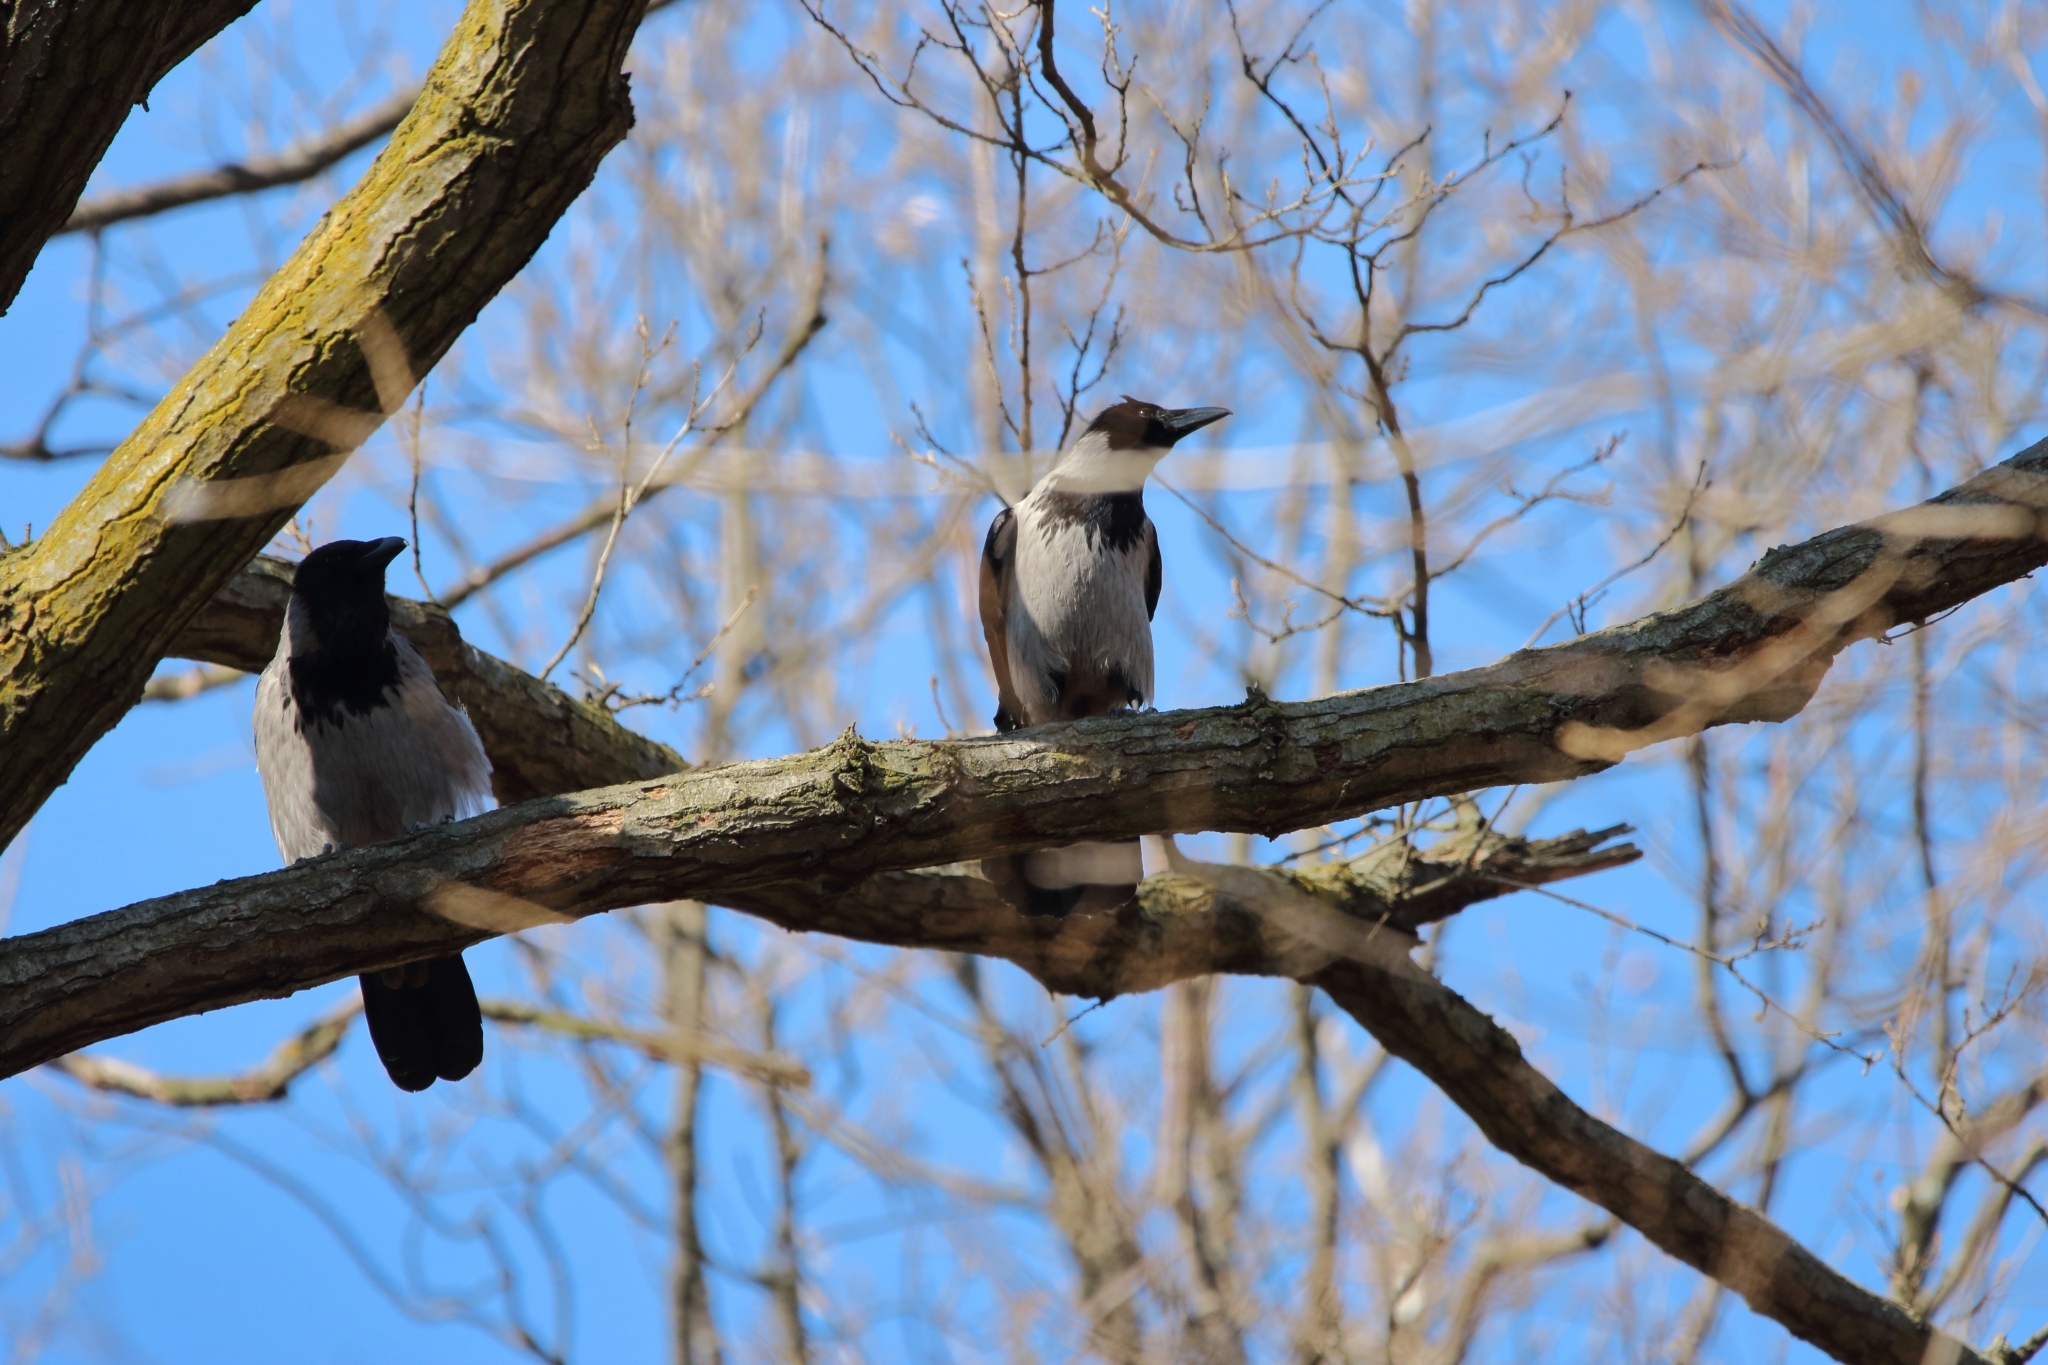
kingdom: Animalia
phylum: Chordata
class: Aves
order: Passeriformes
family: Corvidae
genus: Corvus
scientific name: Corvus cornix
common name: Hooded crow
